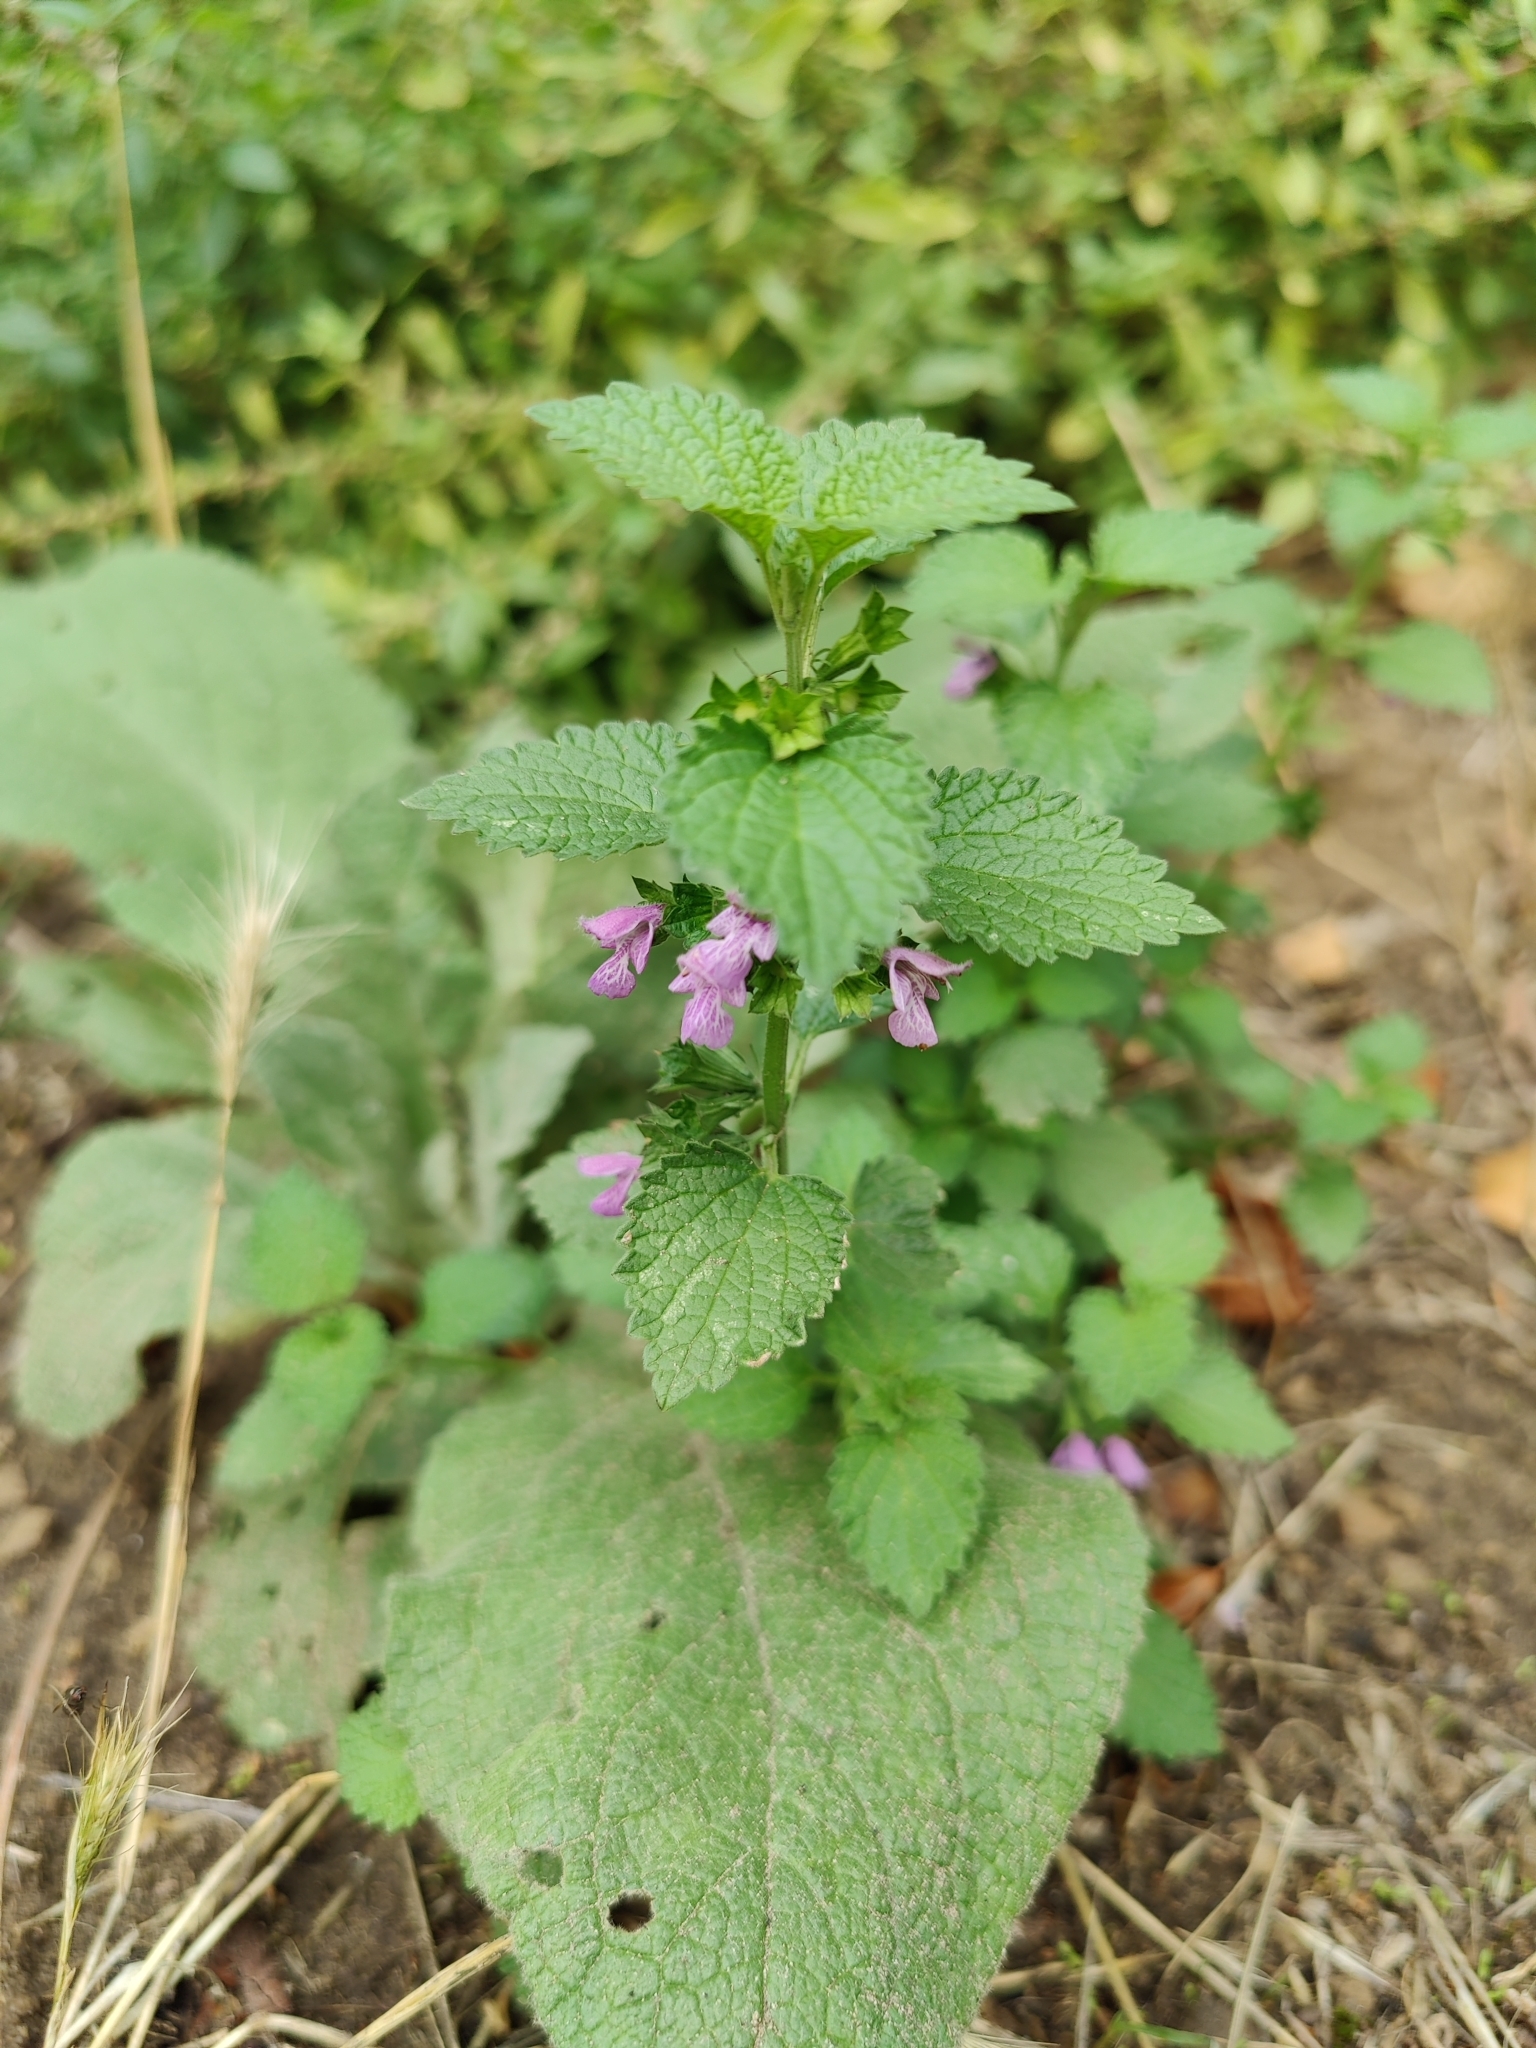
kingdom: Plantae
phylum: Tracheophyta
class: Magnoliopsida
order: Lamiales
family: Lamiaceae
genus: Ballota
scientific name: Ballota nigra
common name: Black horehound
